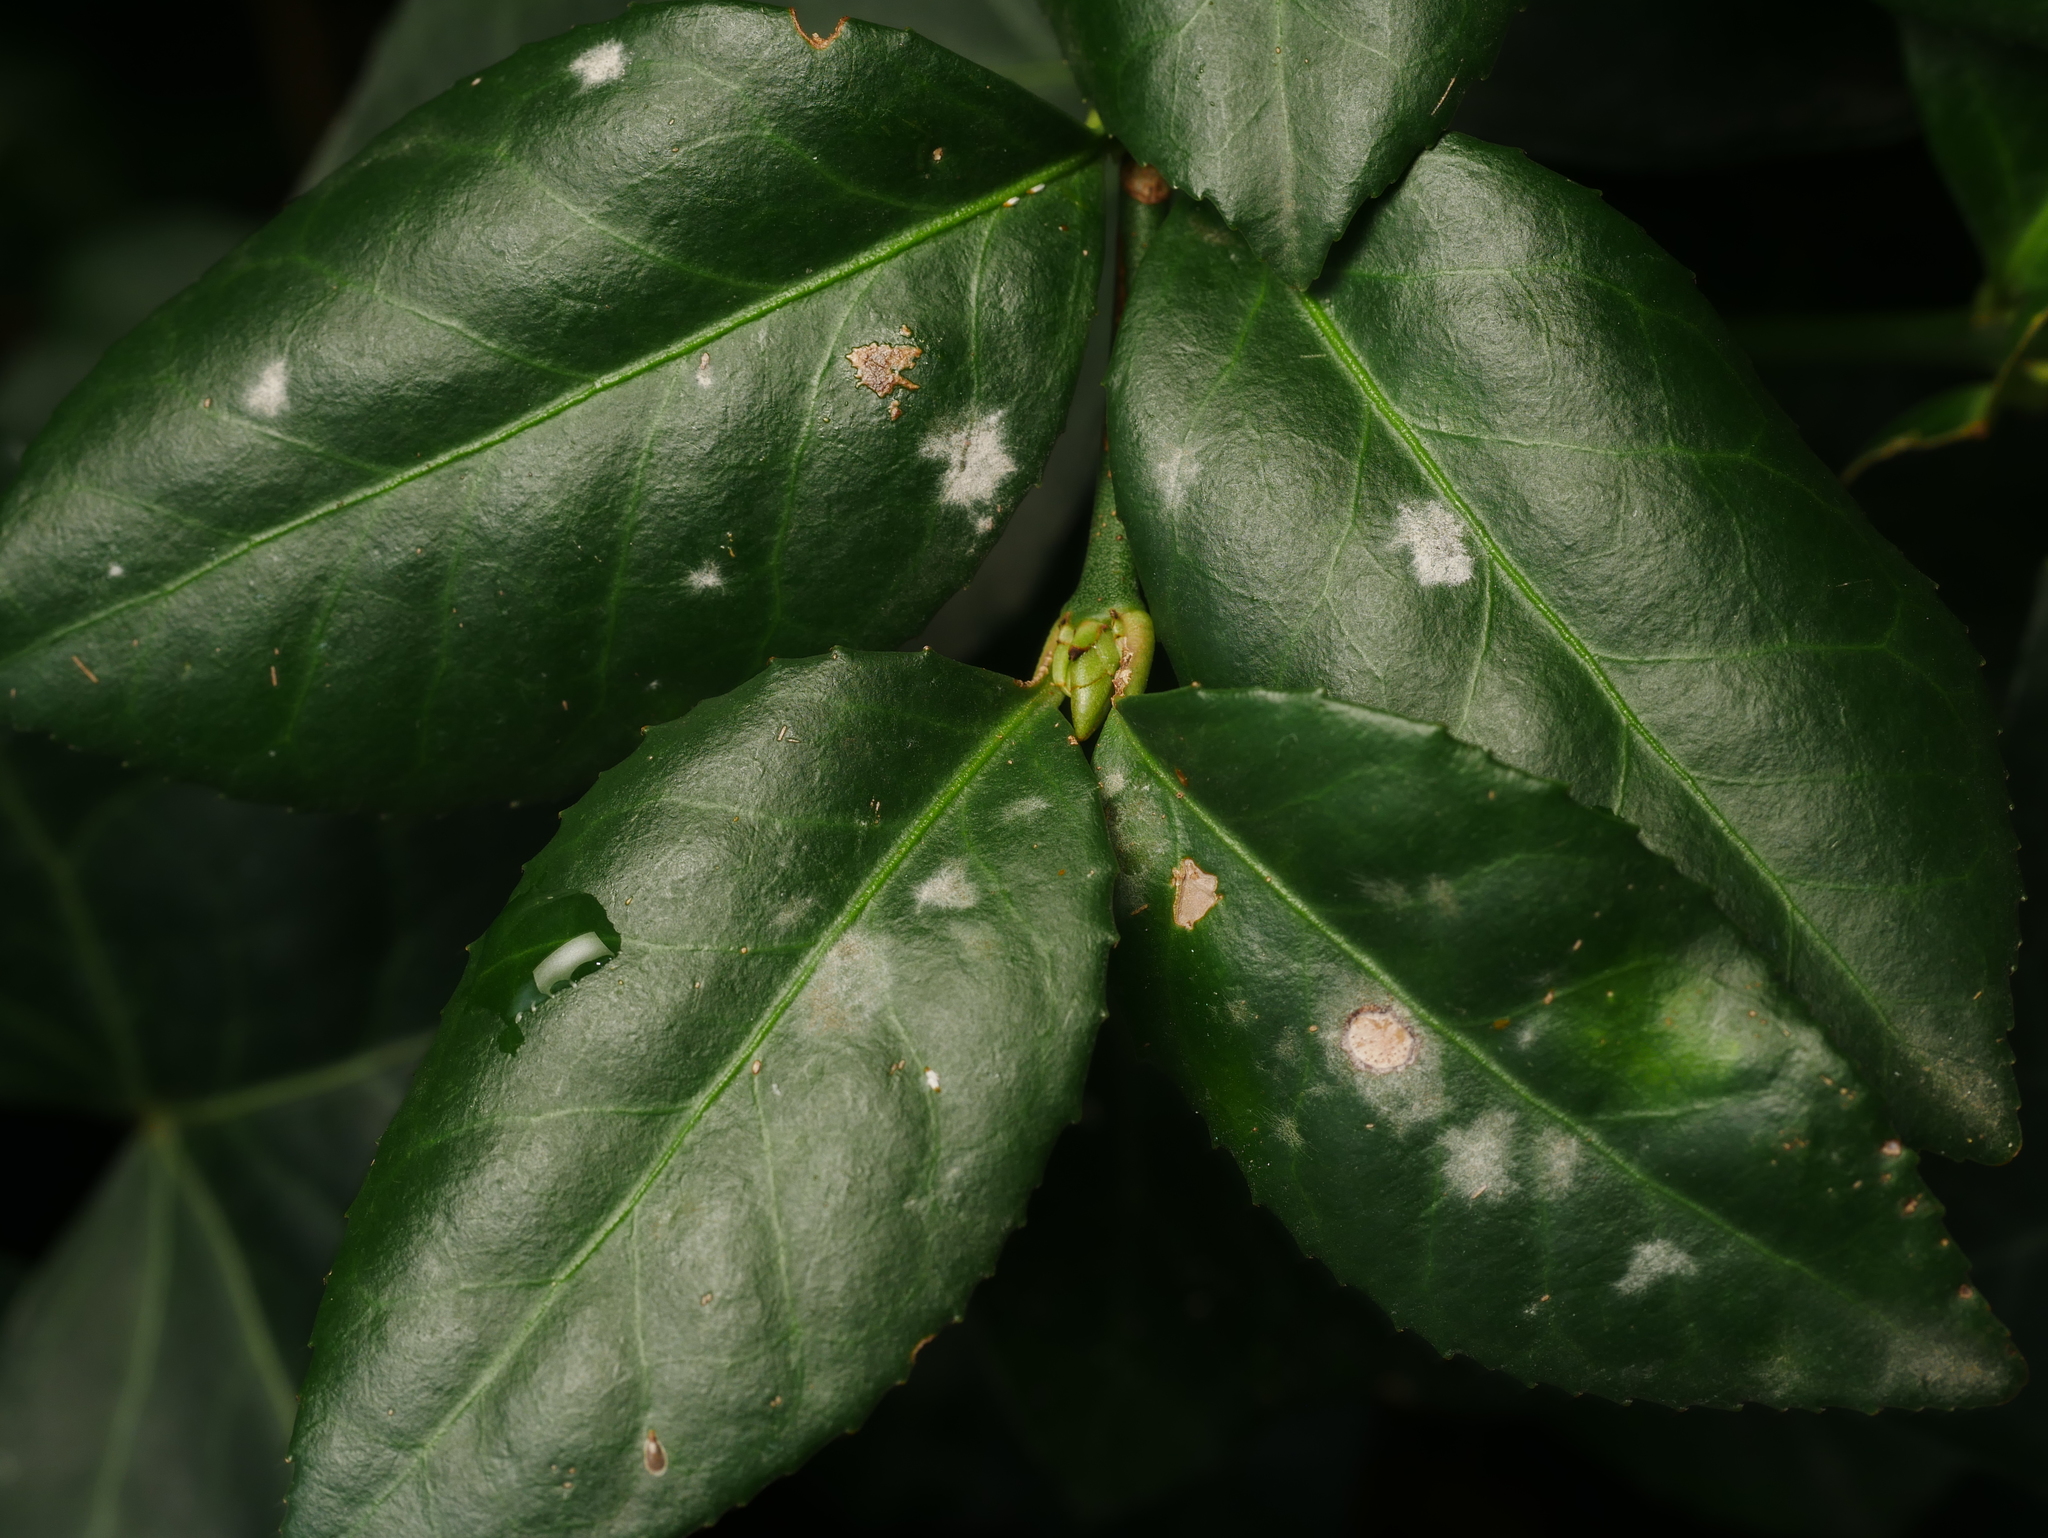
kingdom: Fungi
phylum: Ascomycota
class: Leotiomycetes
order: Helotiales
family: Erysiphaceae
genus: Erysiphe
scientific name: Erysiphe euonymicola
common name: Spindletree mildew
